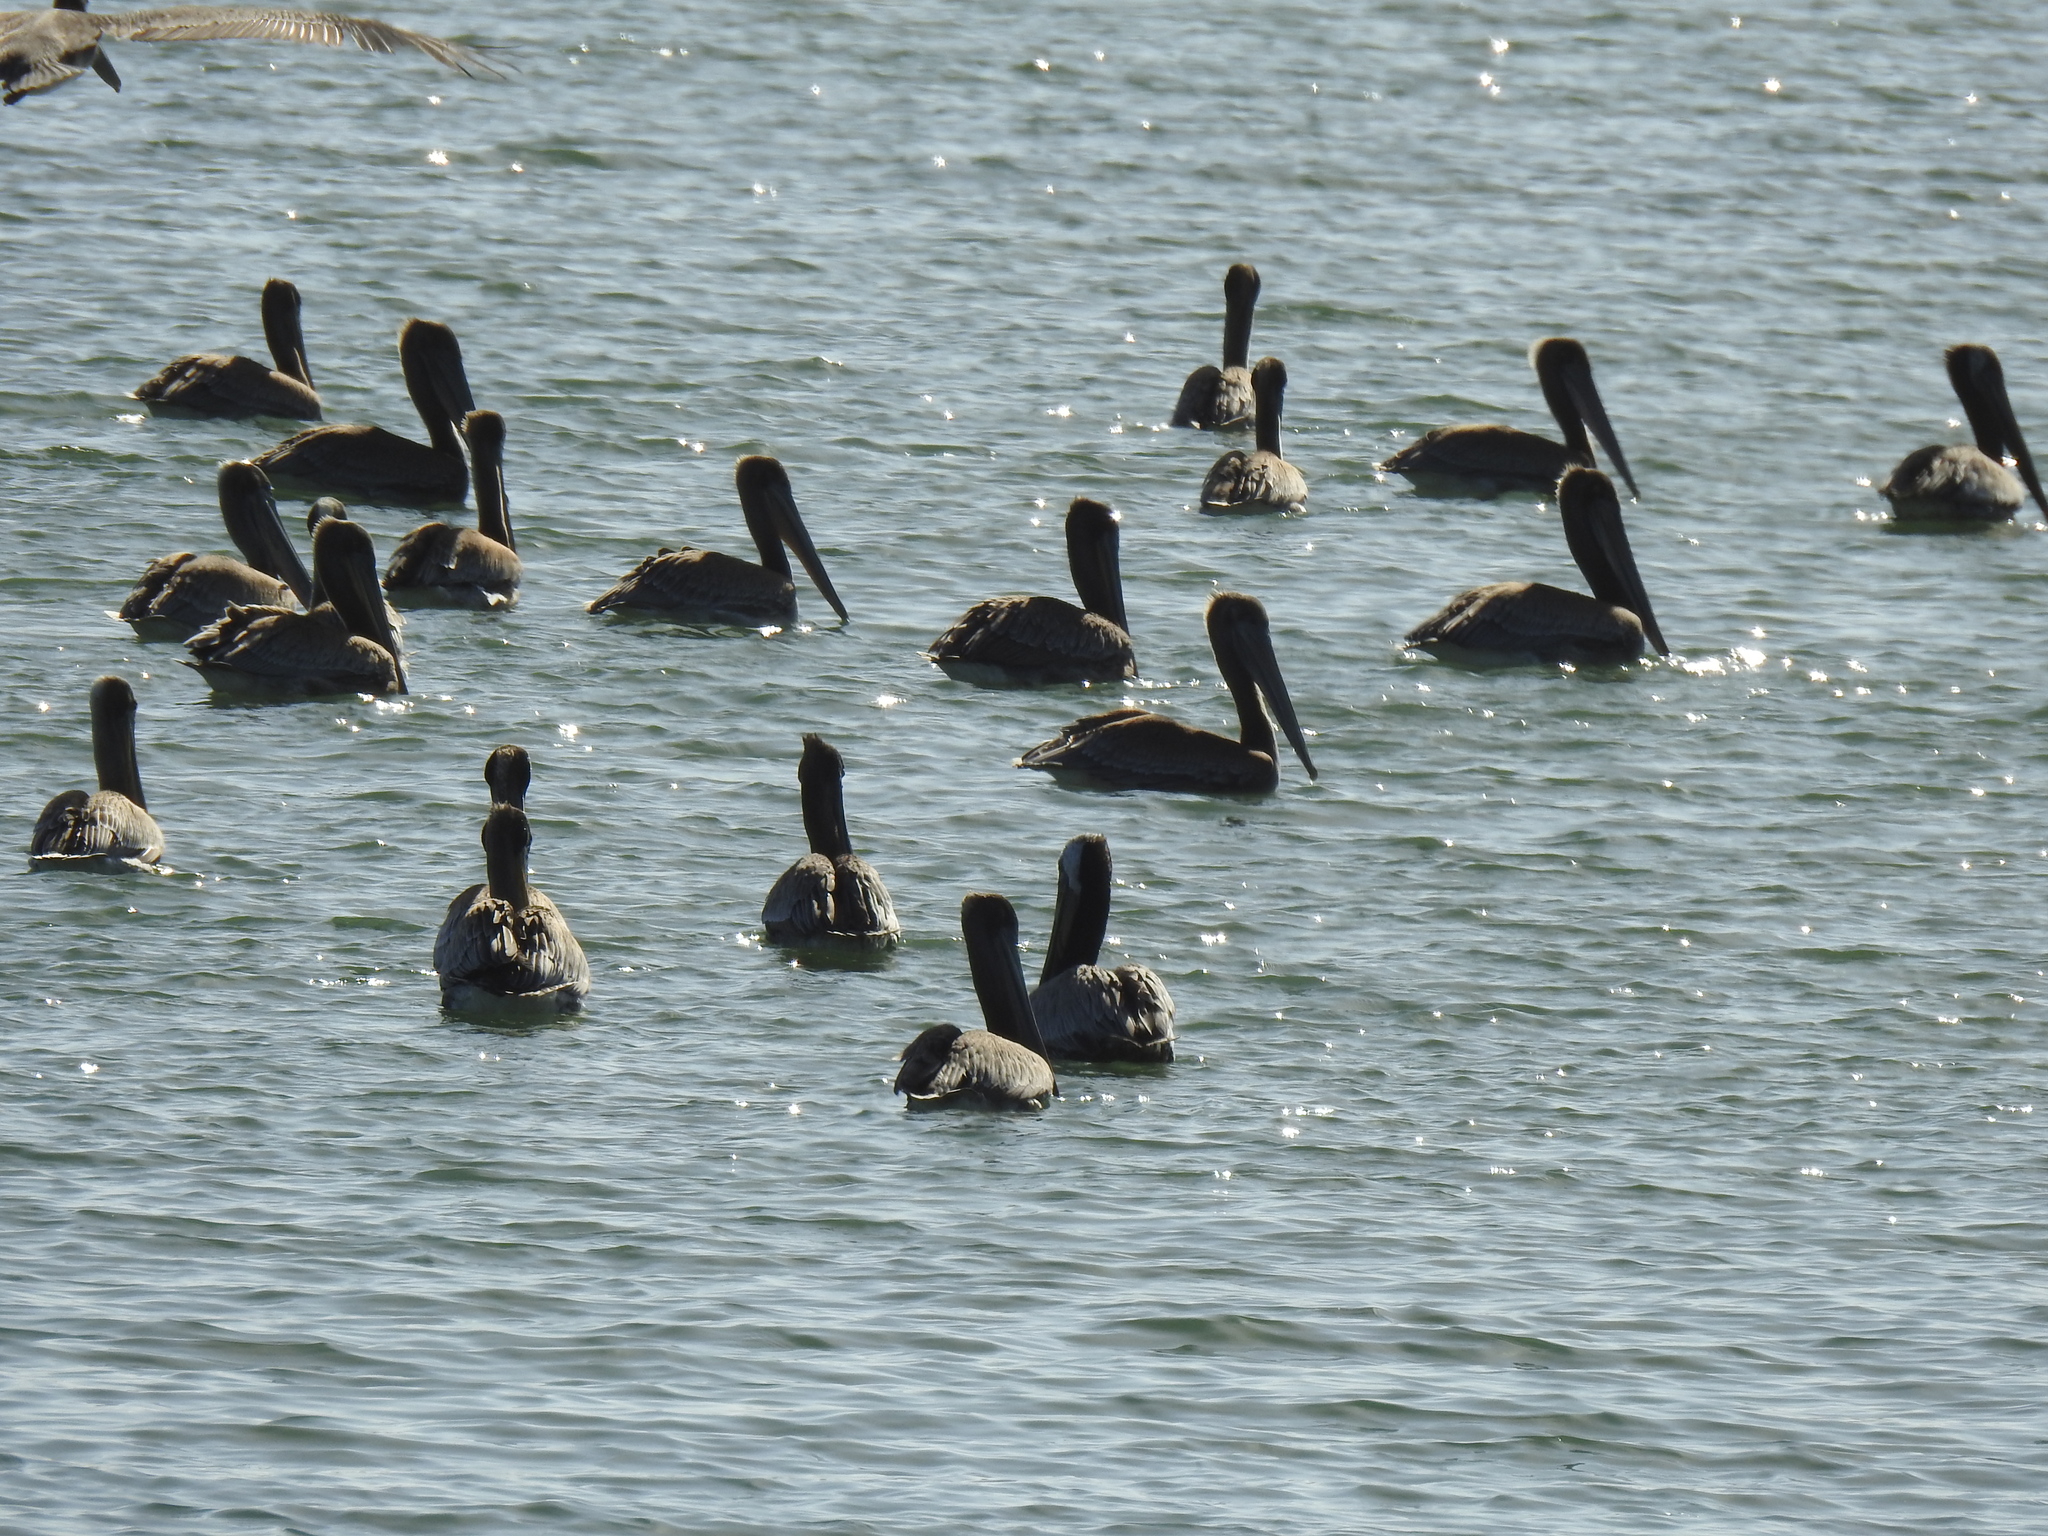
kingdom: Animalia
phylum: Chordata
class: Aves
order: Pelecaniformes
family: Pelecanidae
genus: Pelecanus
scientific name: Pelecanus occidentalis
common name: Brown pelican
